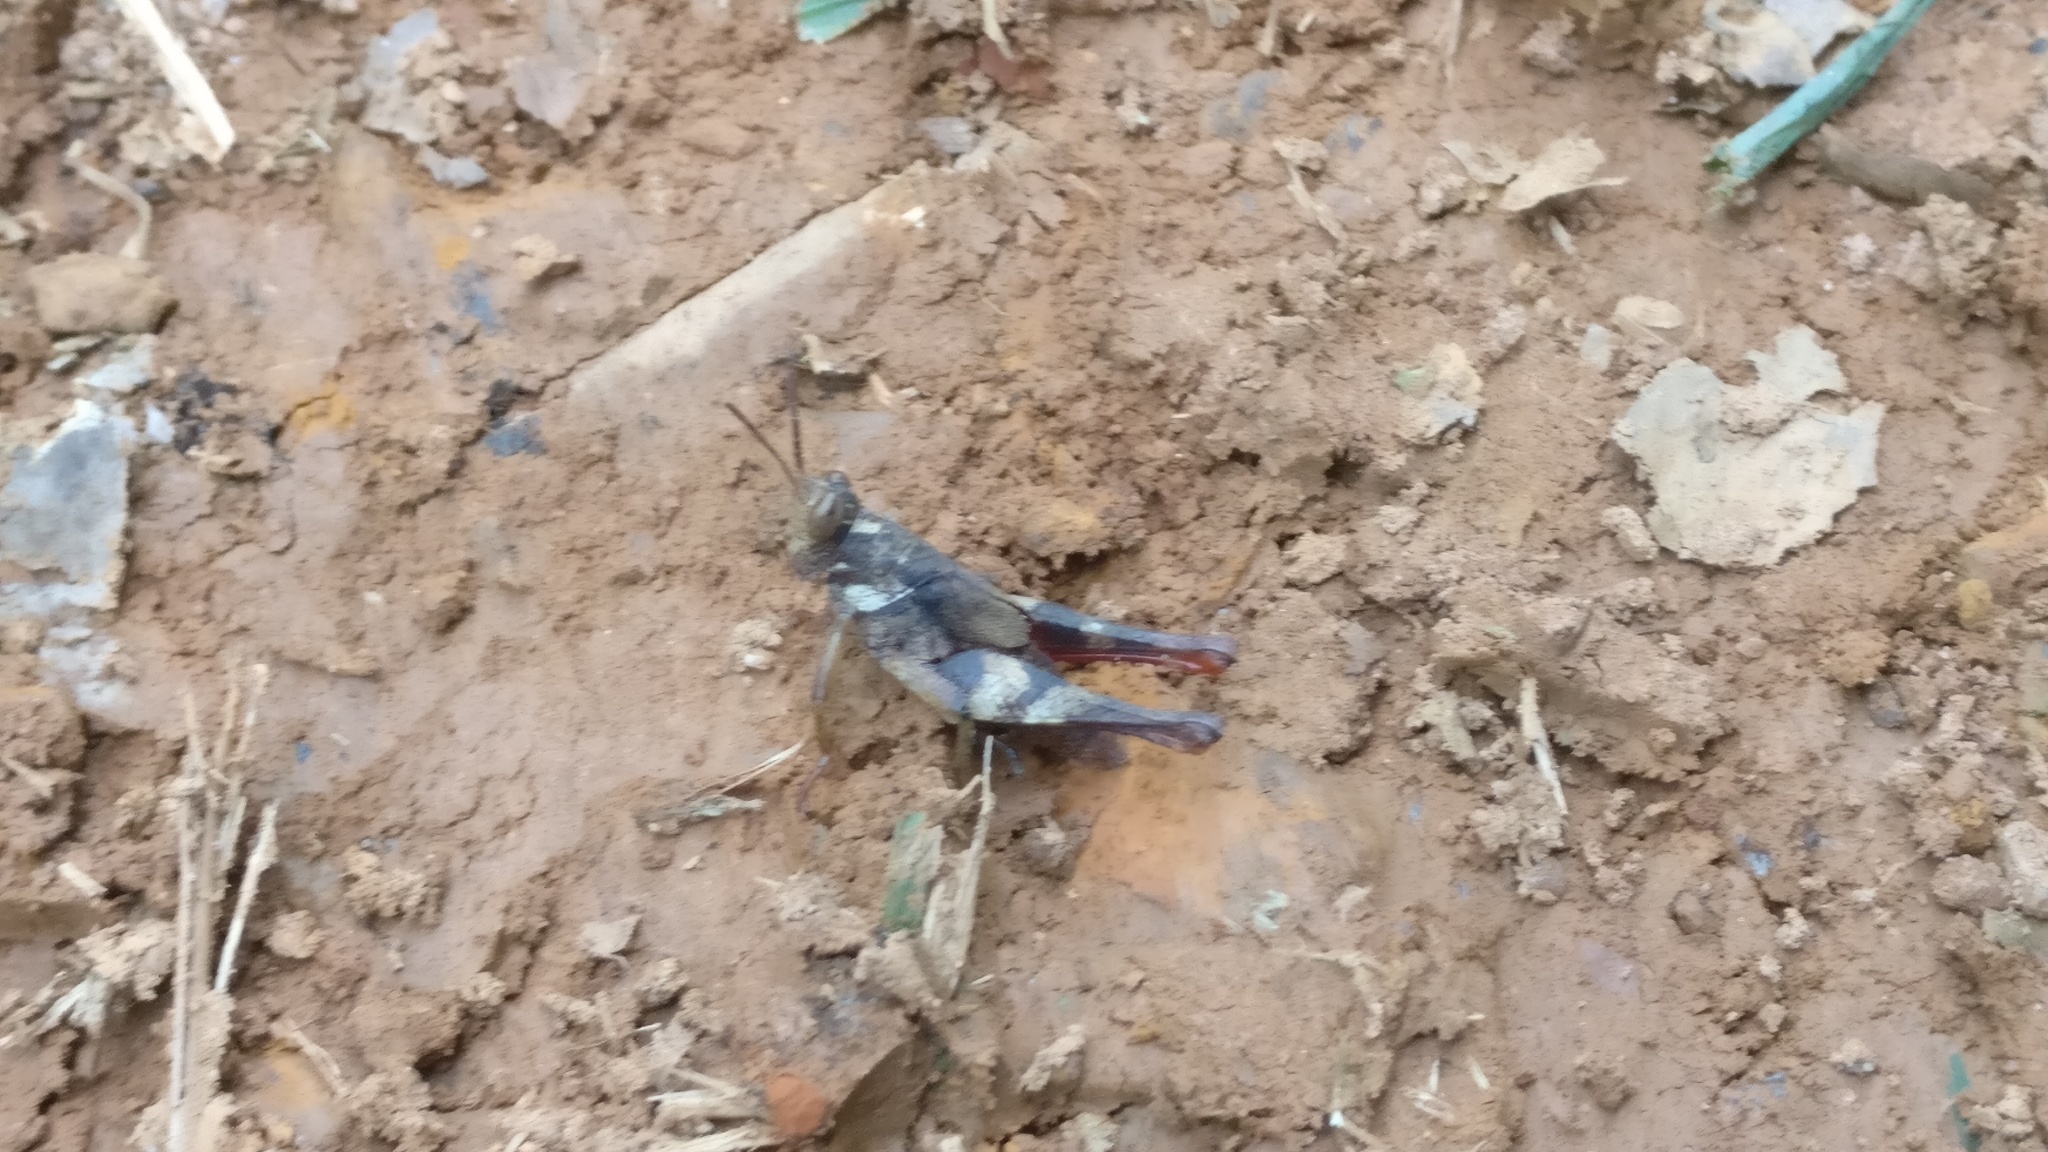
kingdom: Animalia
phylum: Arthropoda
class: Insecta
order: Orthoptera
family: Acrididae
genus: Coptacrella
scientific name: Coptacrella martini
